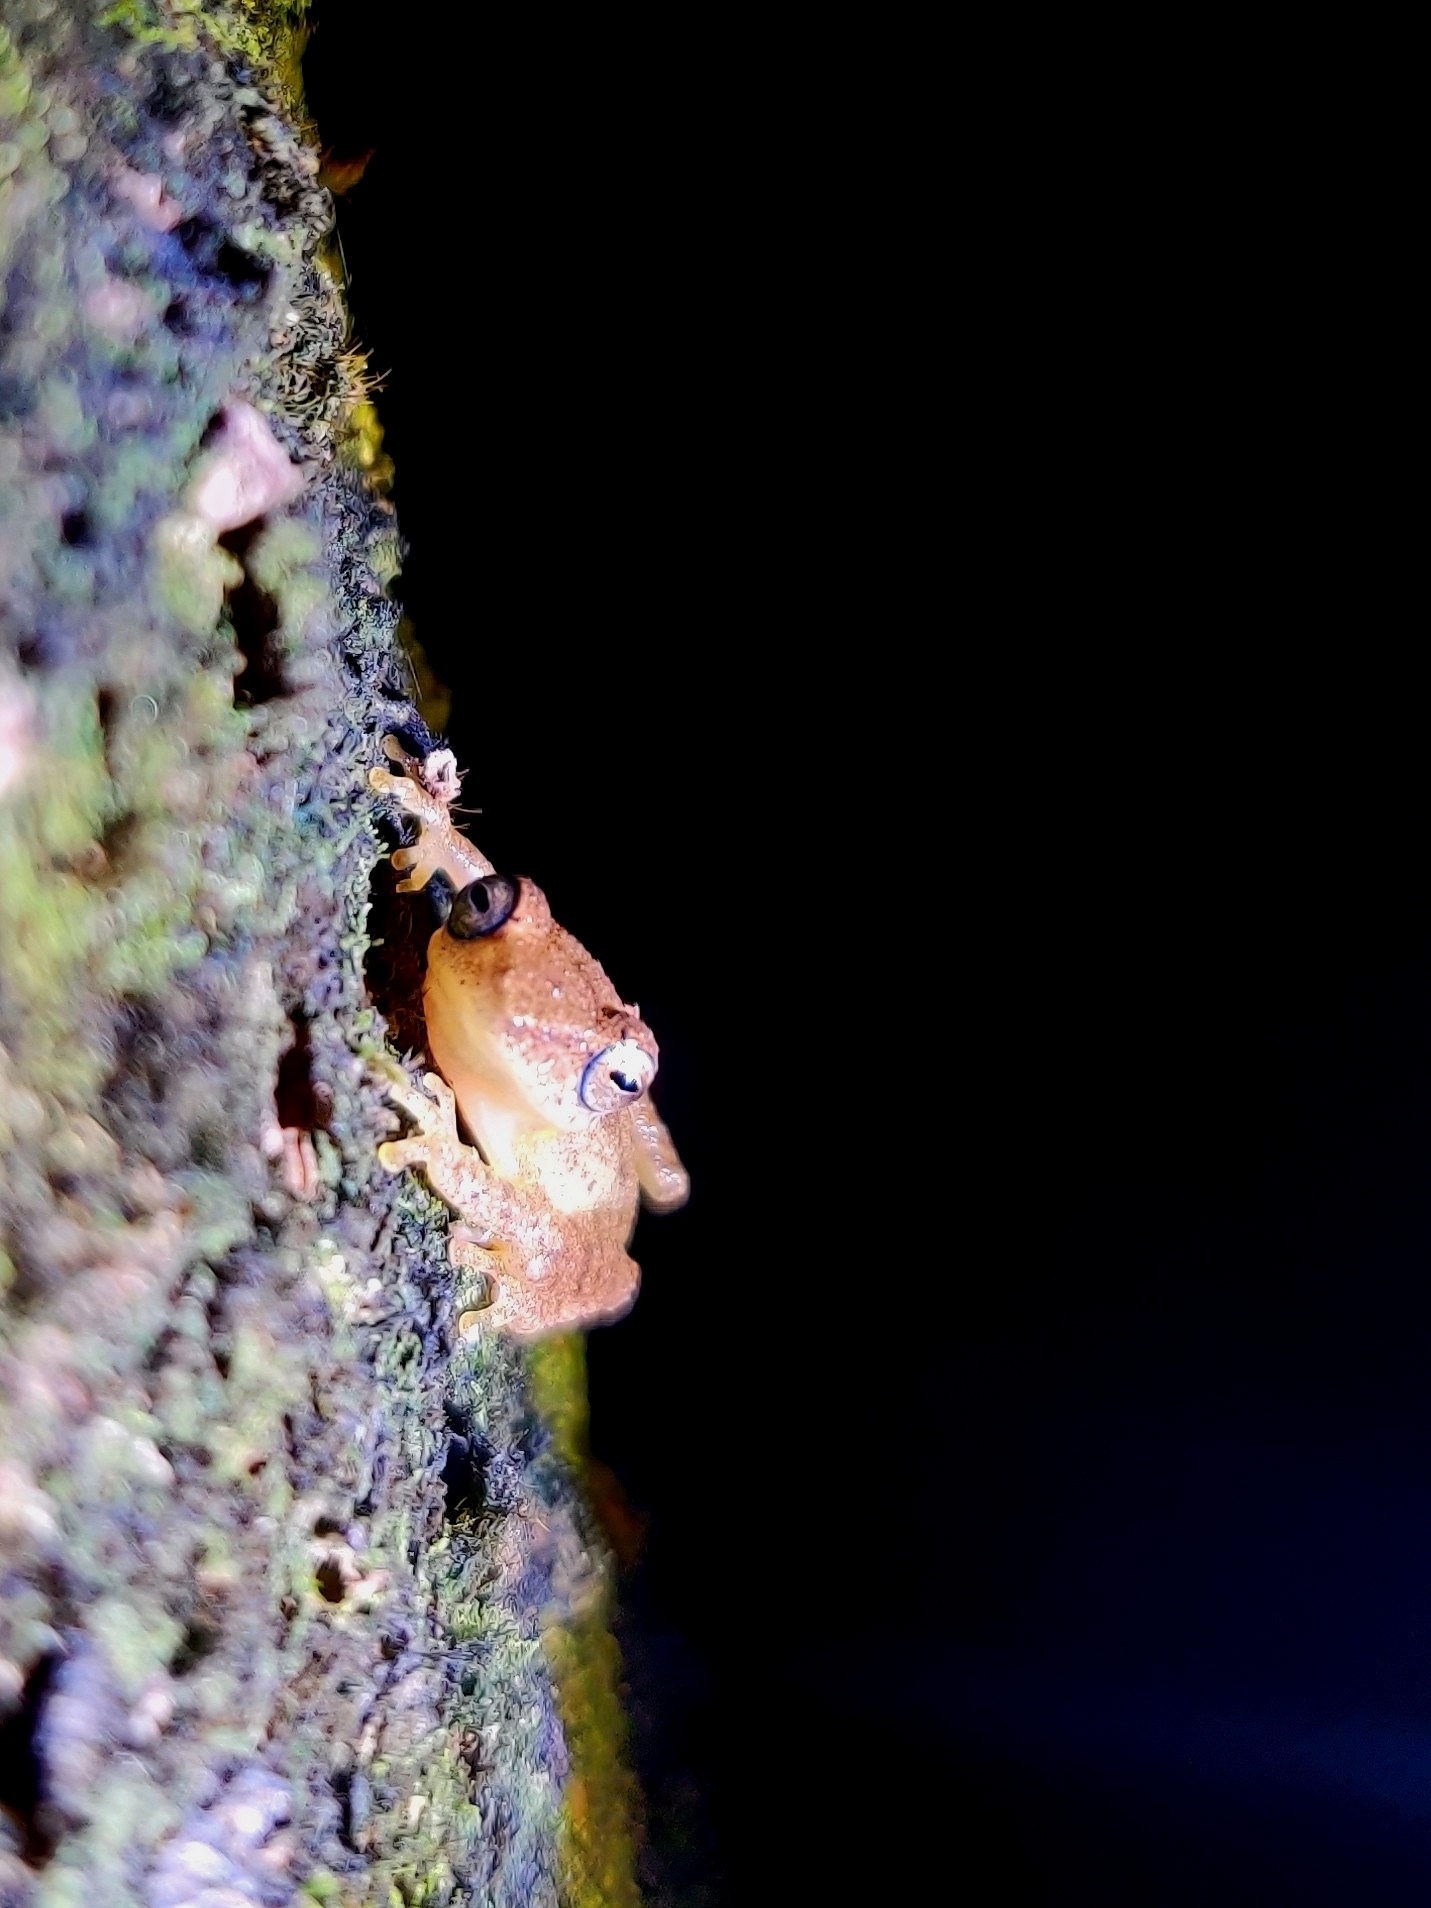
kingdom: Animalia
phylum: Chordata
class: Amphibia
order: Anura
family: Rhacophoridae
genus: Raorchestes
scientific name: Raorchestes luteolus
